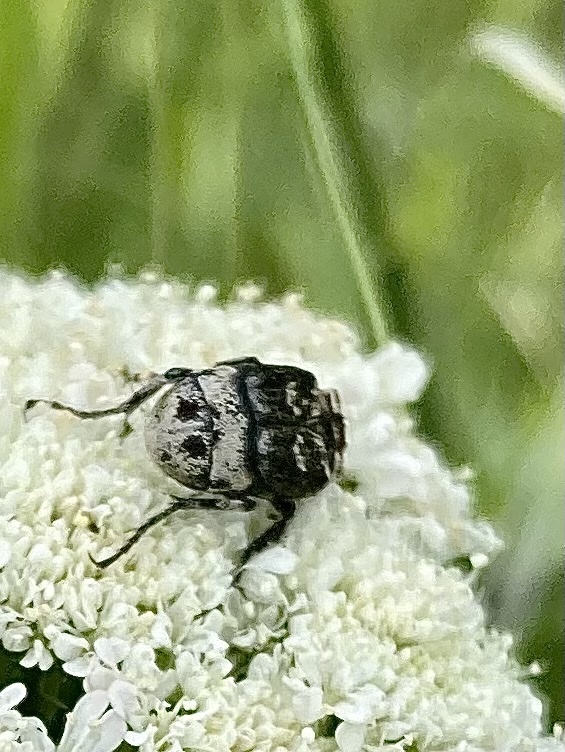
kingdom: Animalia
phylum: Arthropoda
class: Insecta
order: Coleoptera
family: Scarabaeidae
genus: Valgus
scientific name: Valgus hemipterus
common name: Bug flower chafer
